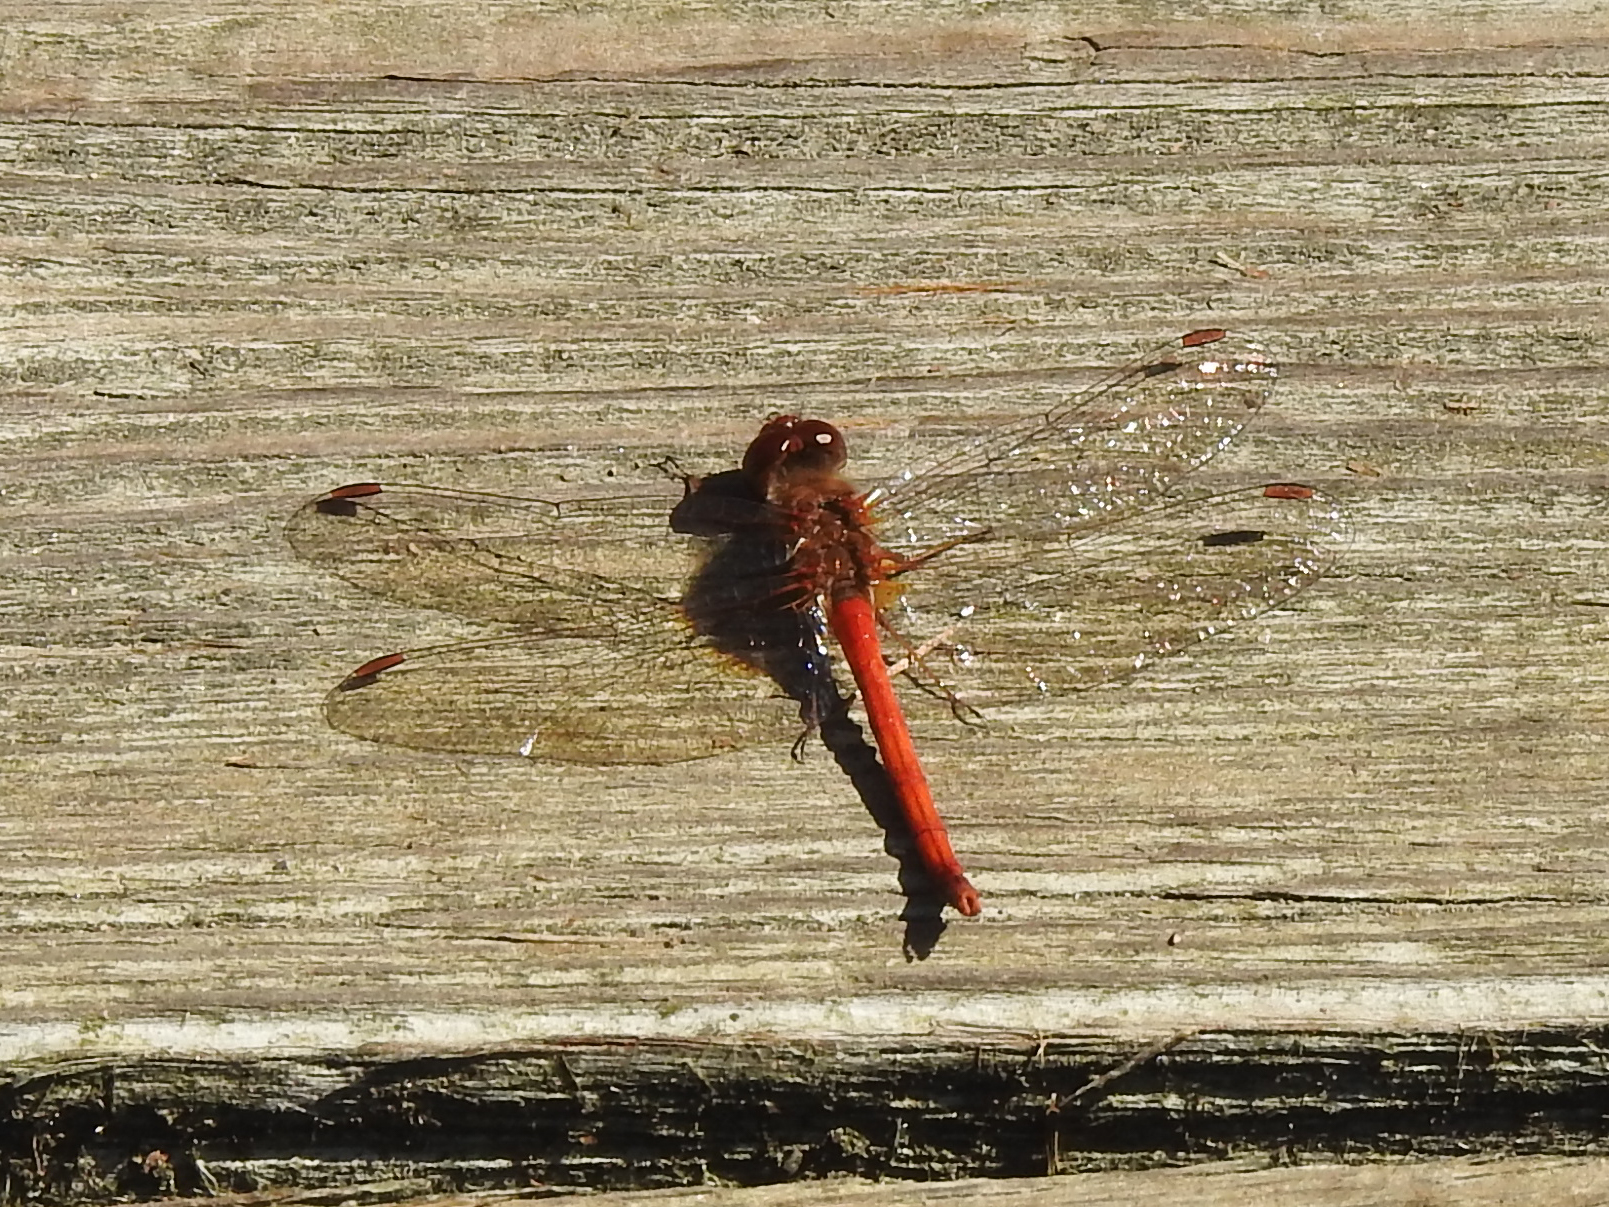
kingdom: Animalia
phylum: Arthropoda
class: Insecta
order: Odonata
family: Libellulidae
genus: Sympetrum
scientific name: Sympetrum vicinum
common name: Autumn meadowhawk
